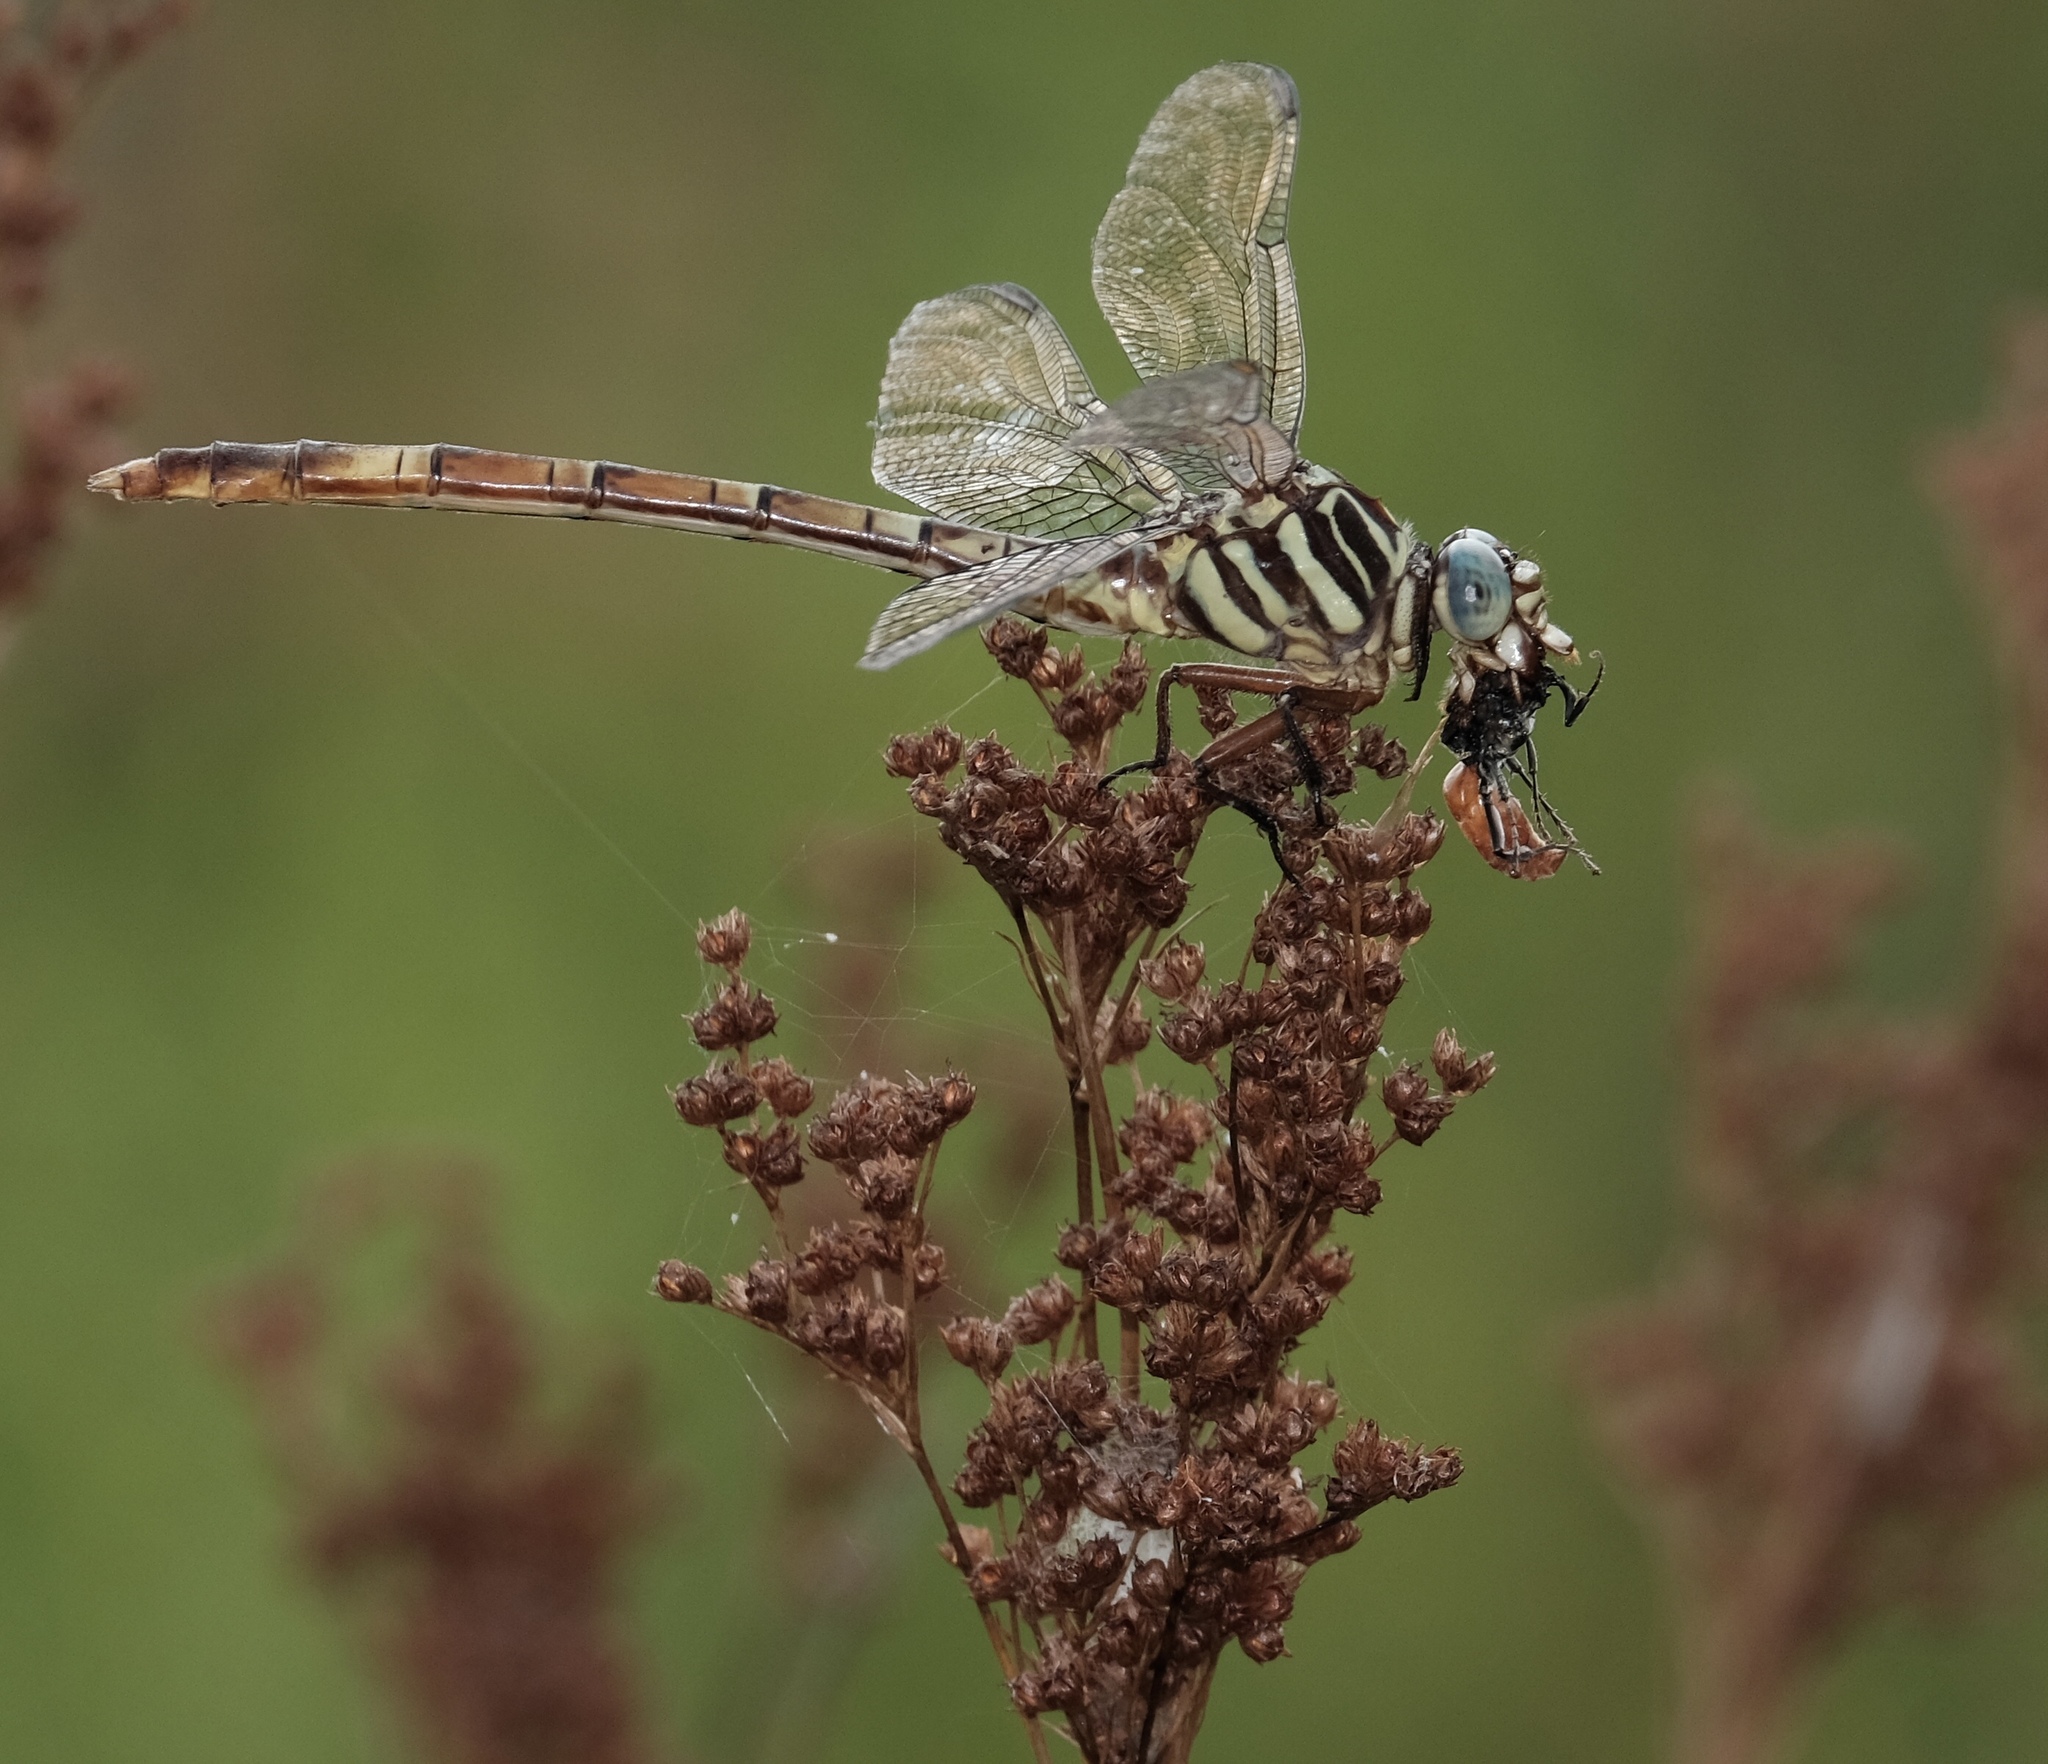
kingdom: Animalia
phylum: Arthropoda
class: Insecta
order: Odonata
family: Gomphidae
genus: Aphylla
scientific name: Aphylla angustifolia
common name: Broad-striped forceptail
